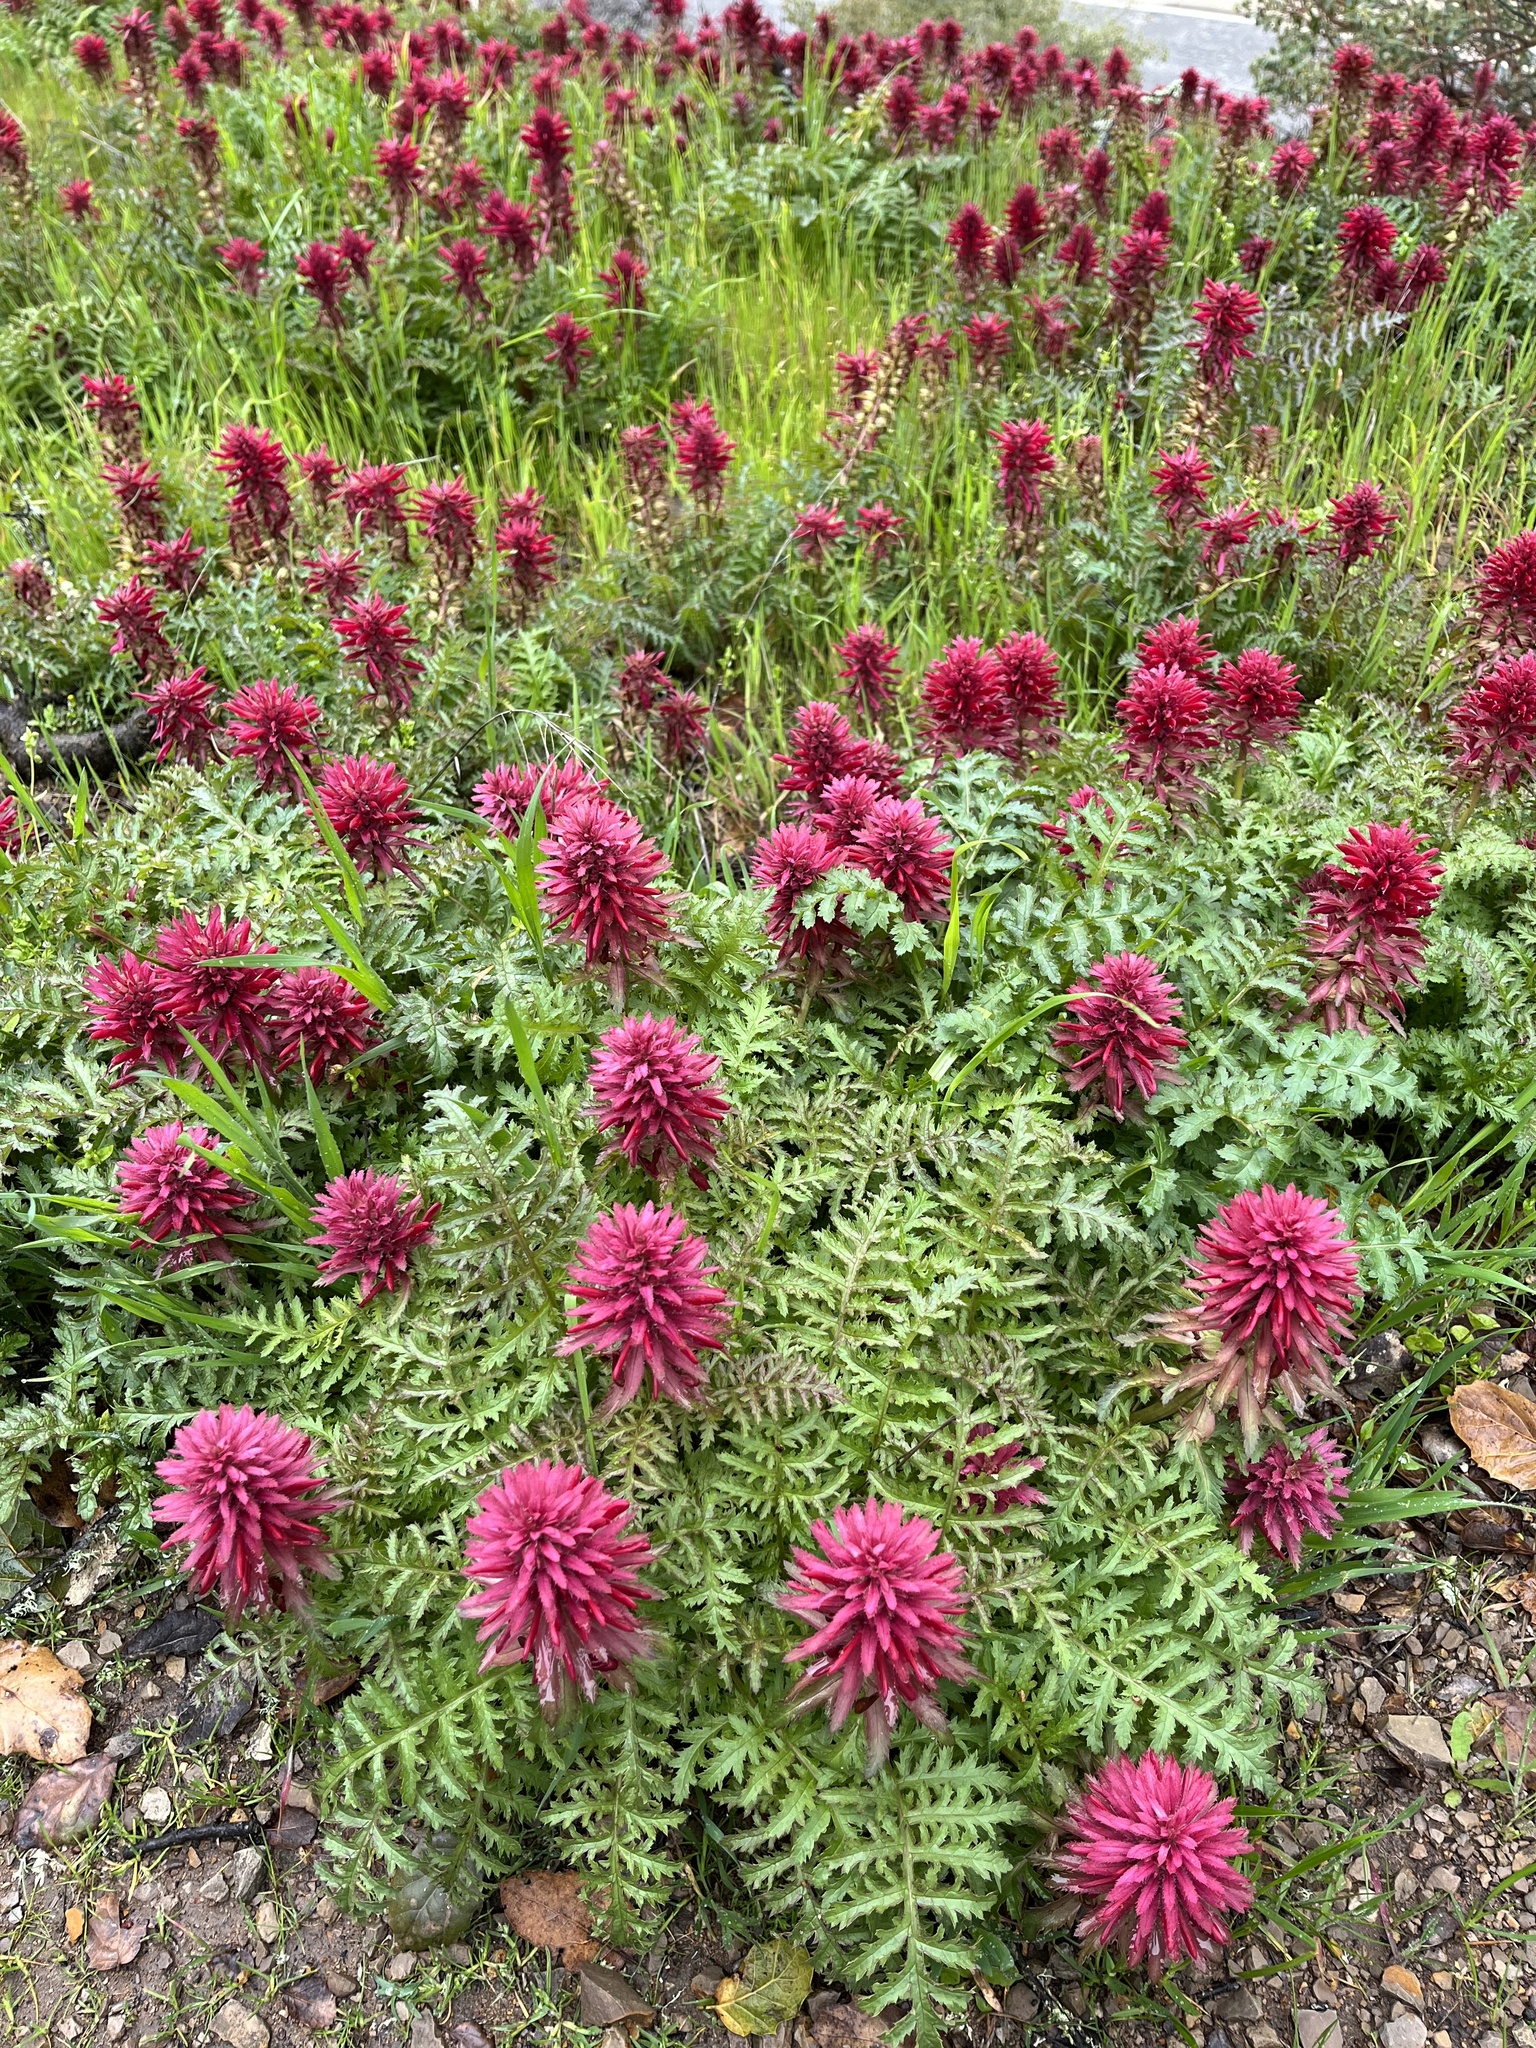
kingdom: Plantae
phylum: Tracheophyta
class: Magnoliopsida
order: Lamiales
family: Orobanchaceae
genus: Pedicularis
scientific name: Pedicularis densiflora
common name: Indian warrior
